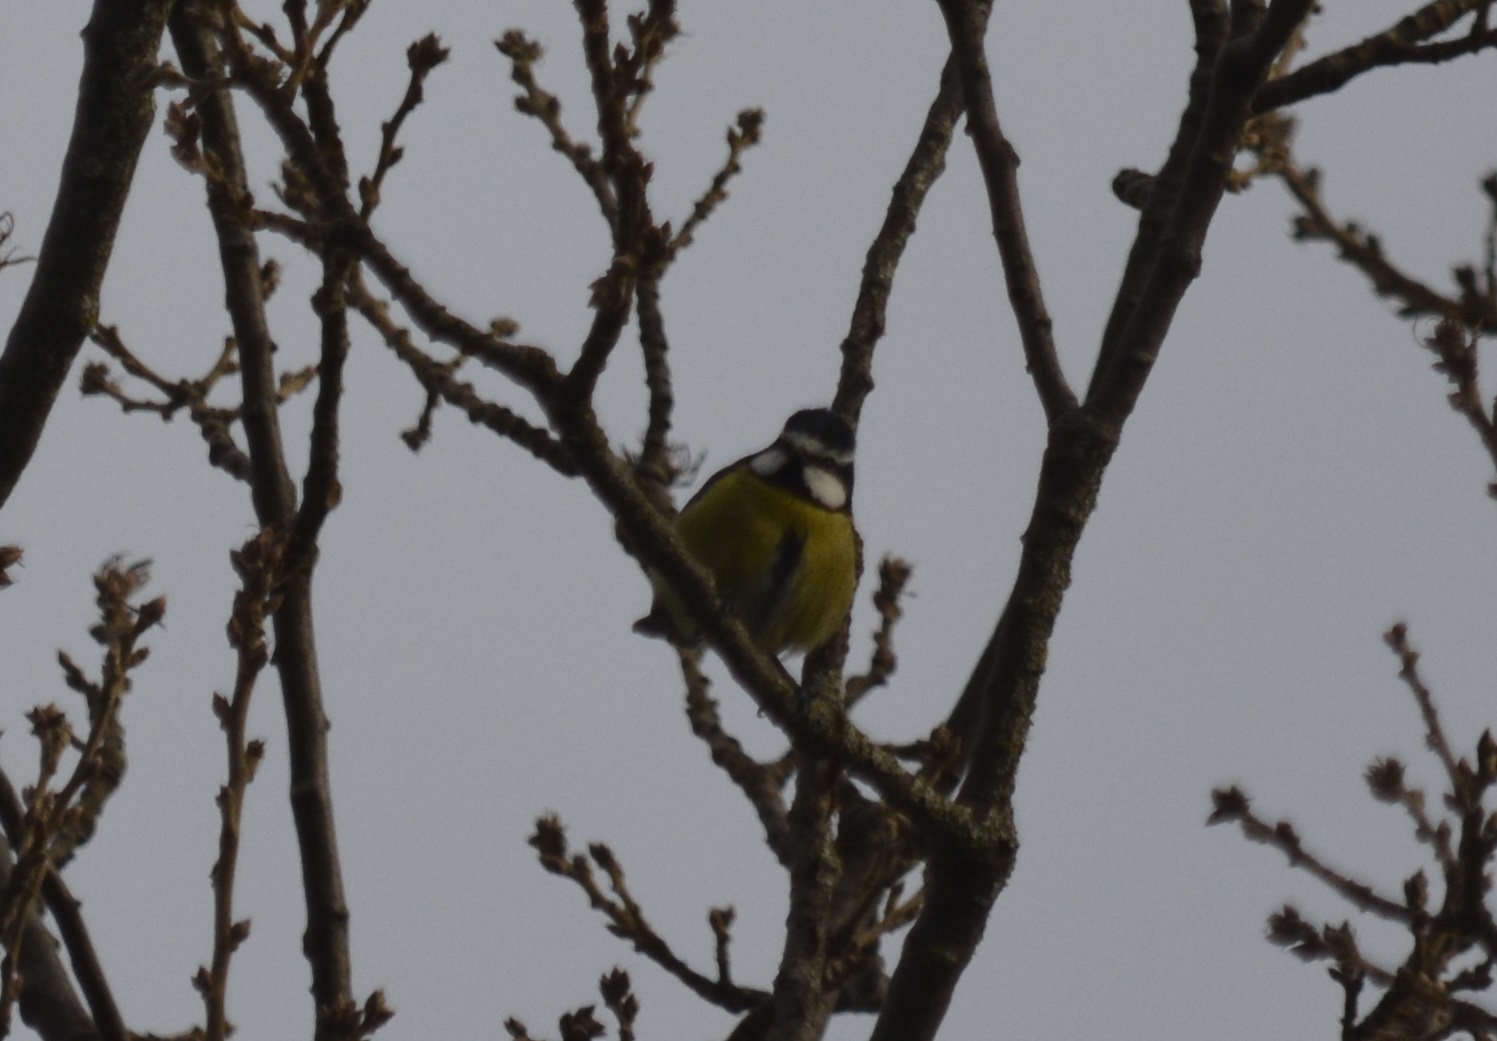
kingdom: Animalia
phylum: Chordata
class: Aves
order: Passeriformes
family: Paridae
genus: Cyanistes
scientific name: Cyanistes teneriffae
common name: African blue tit
